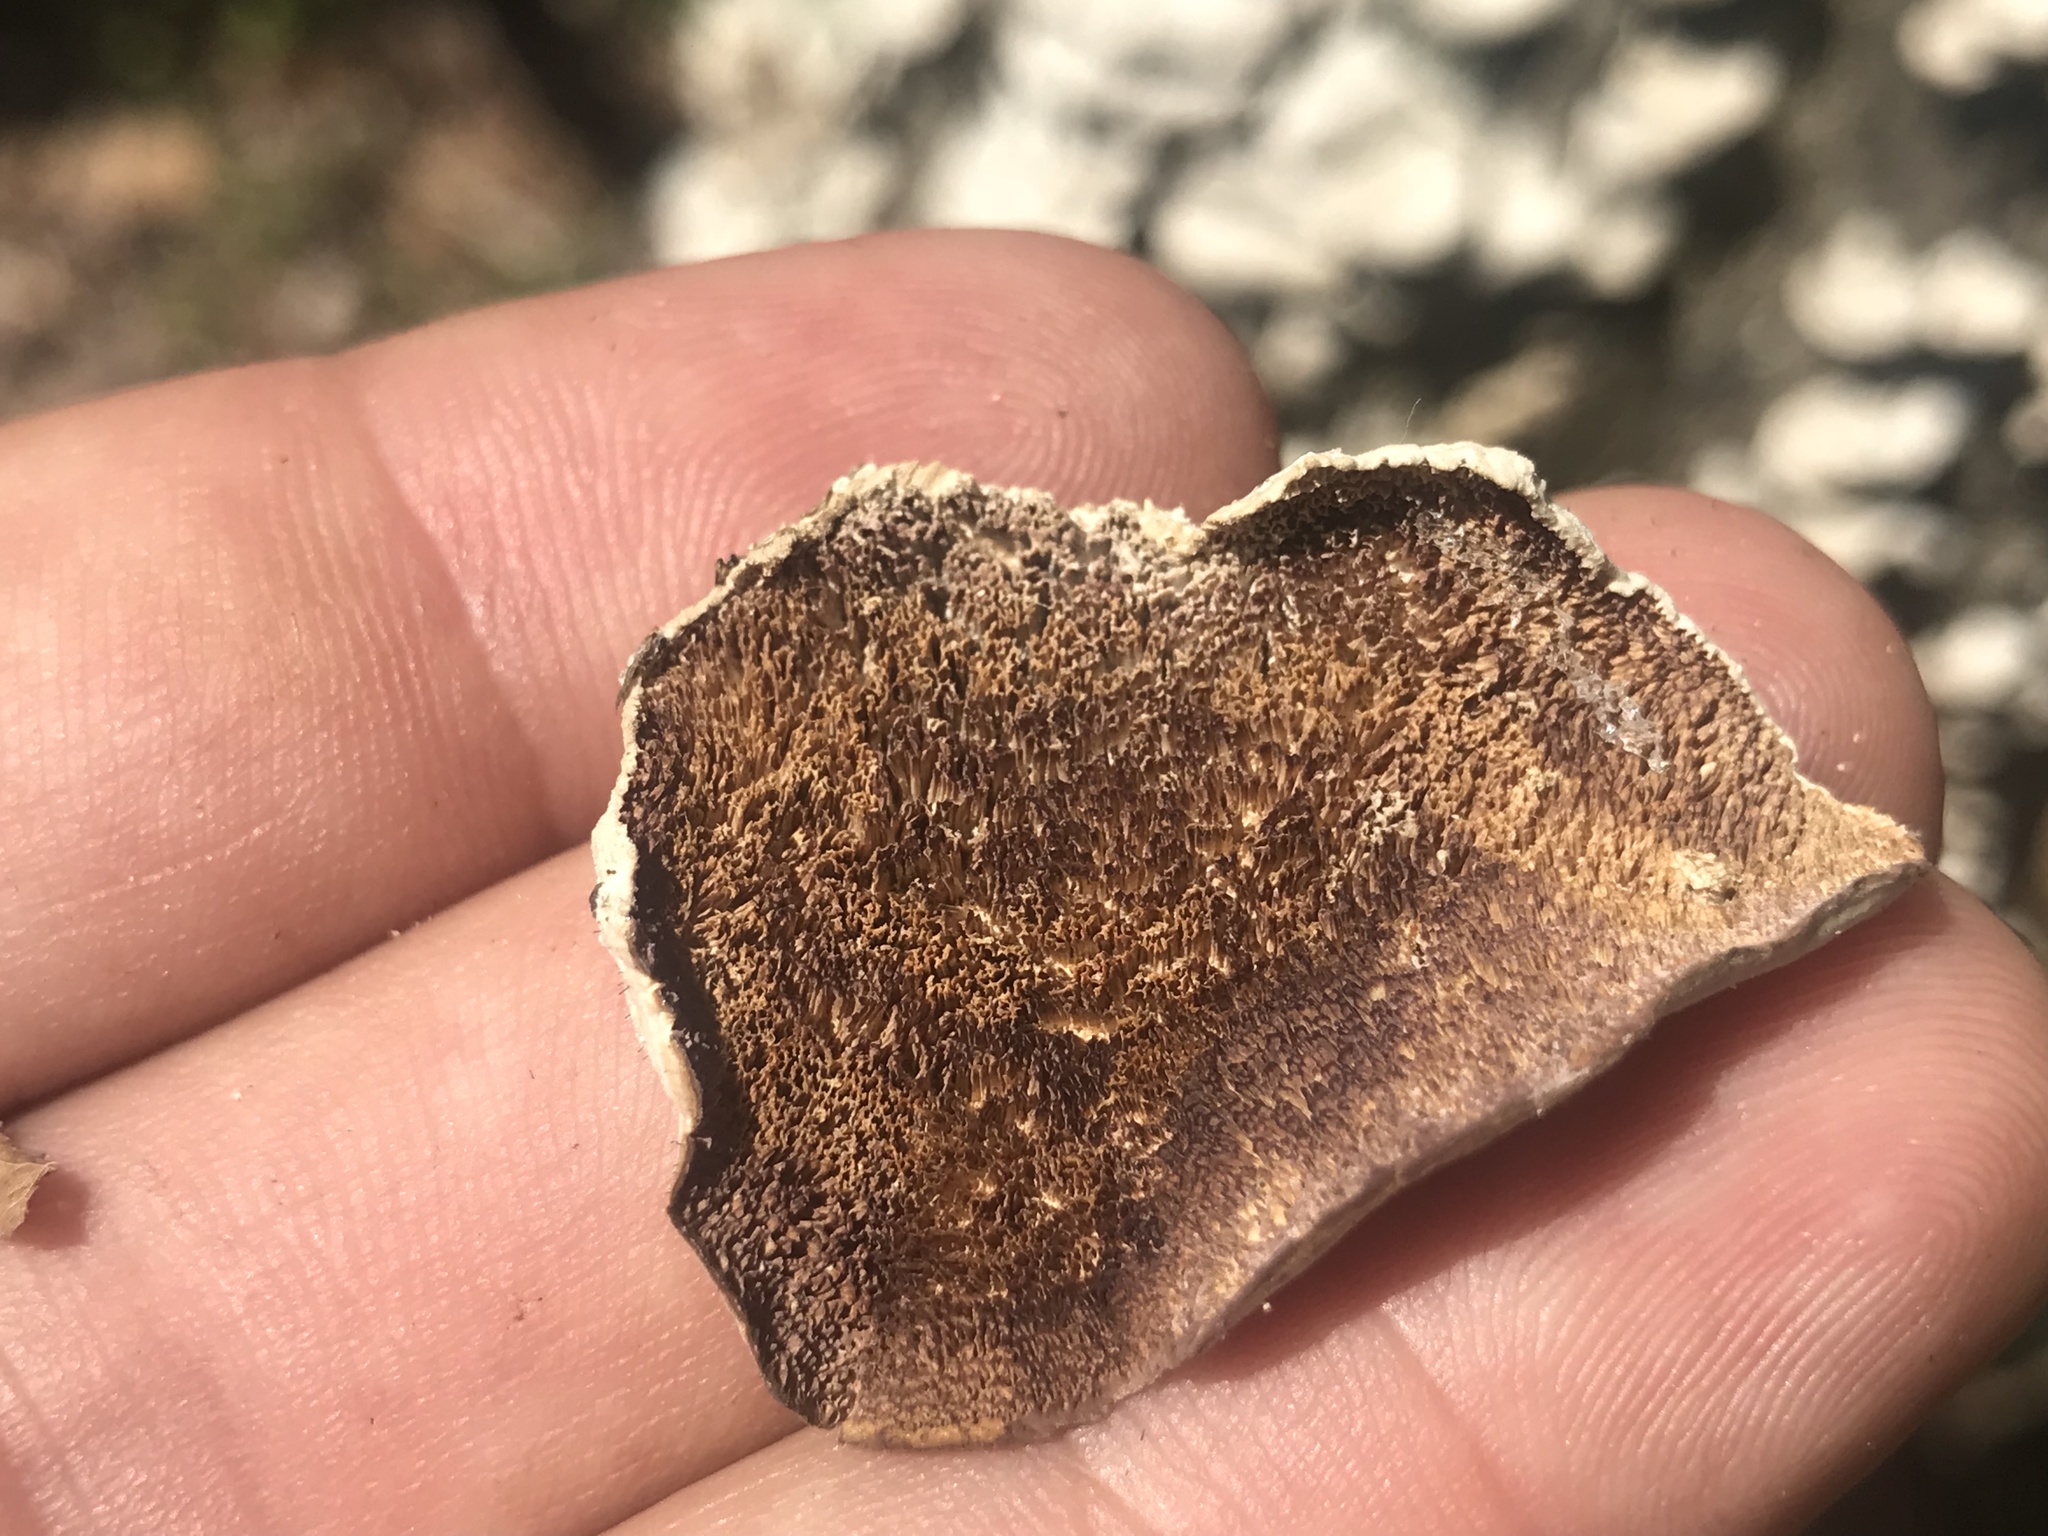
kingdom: Fungi
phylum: Basidiomycota
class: Agaricomycetes
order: Polyporales
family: Polyporaceae
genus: Trametes
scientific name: Trametes versicolor
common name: Turkeytail
